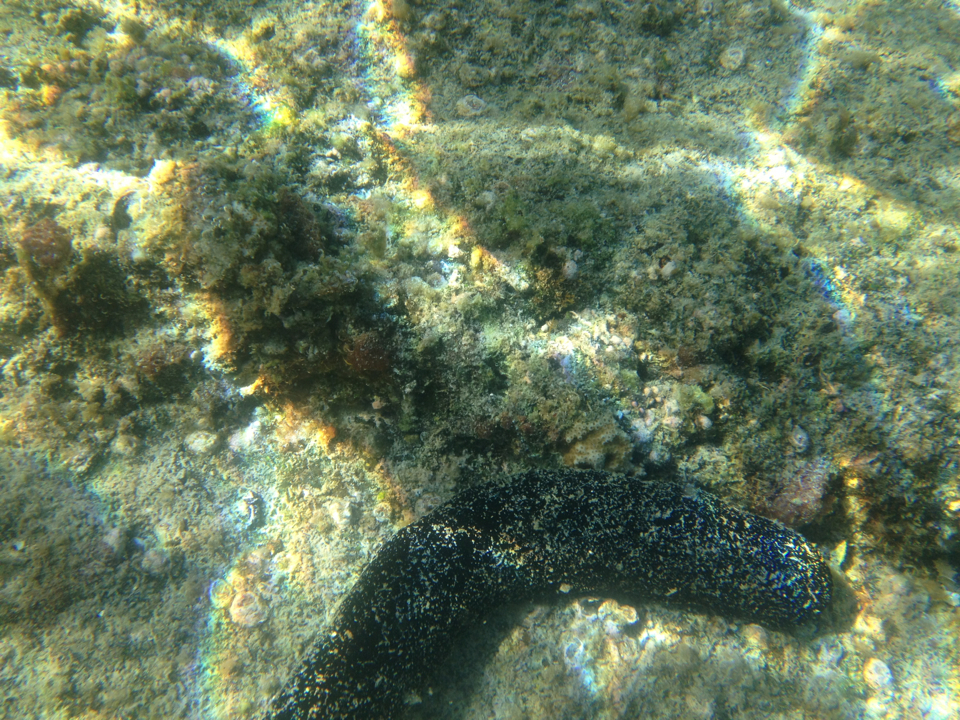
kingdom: Animalia
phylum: Echinodermata
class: Holothuroidea
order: Holothuriida
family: Holothuriidae
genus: Holothuria
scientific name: Holothuria atra
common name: Lollyfish
